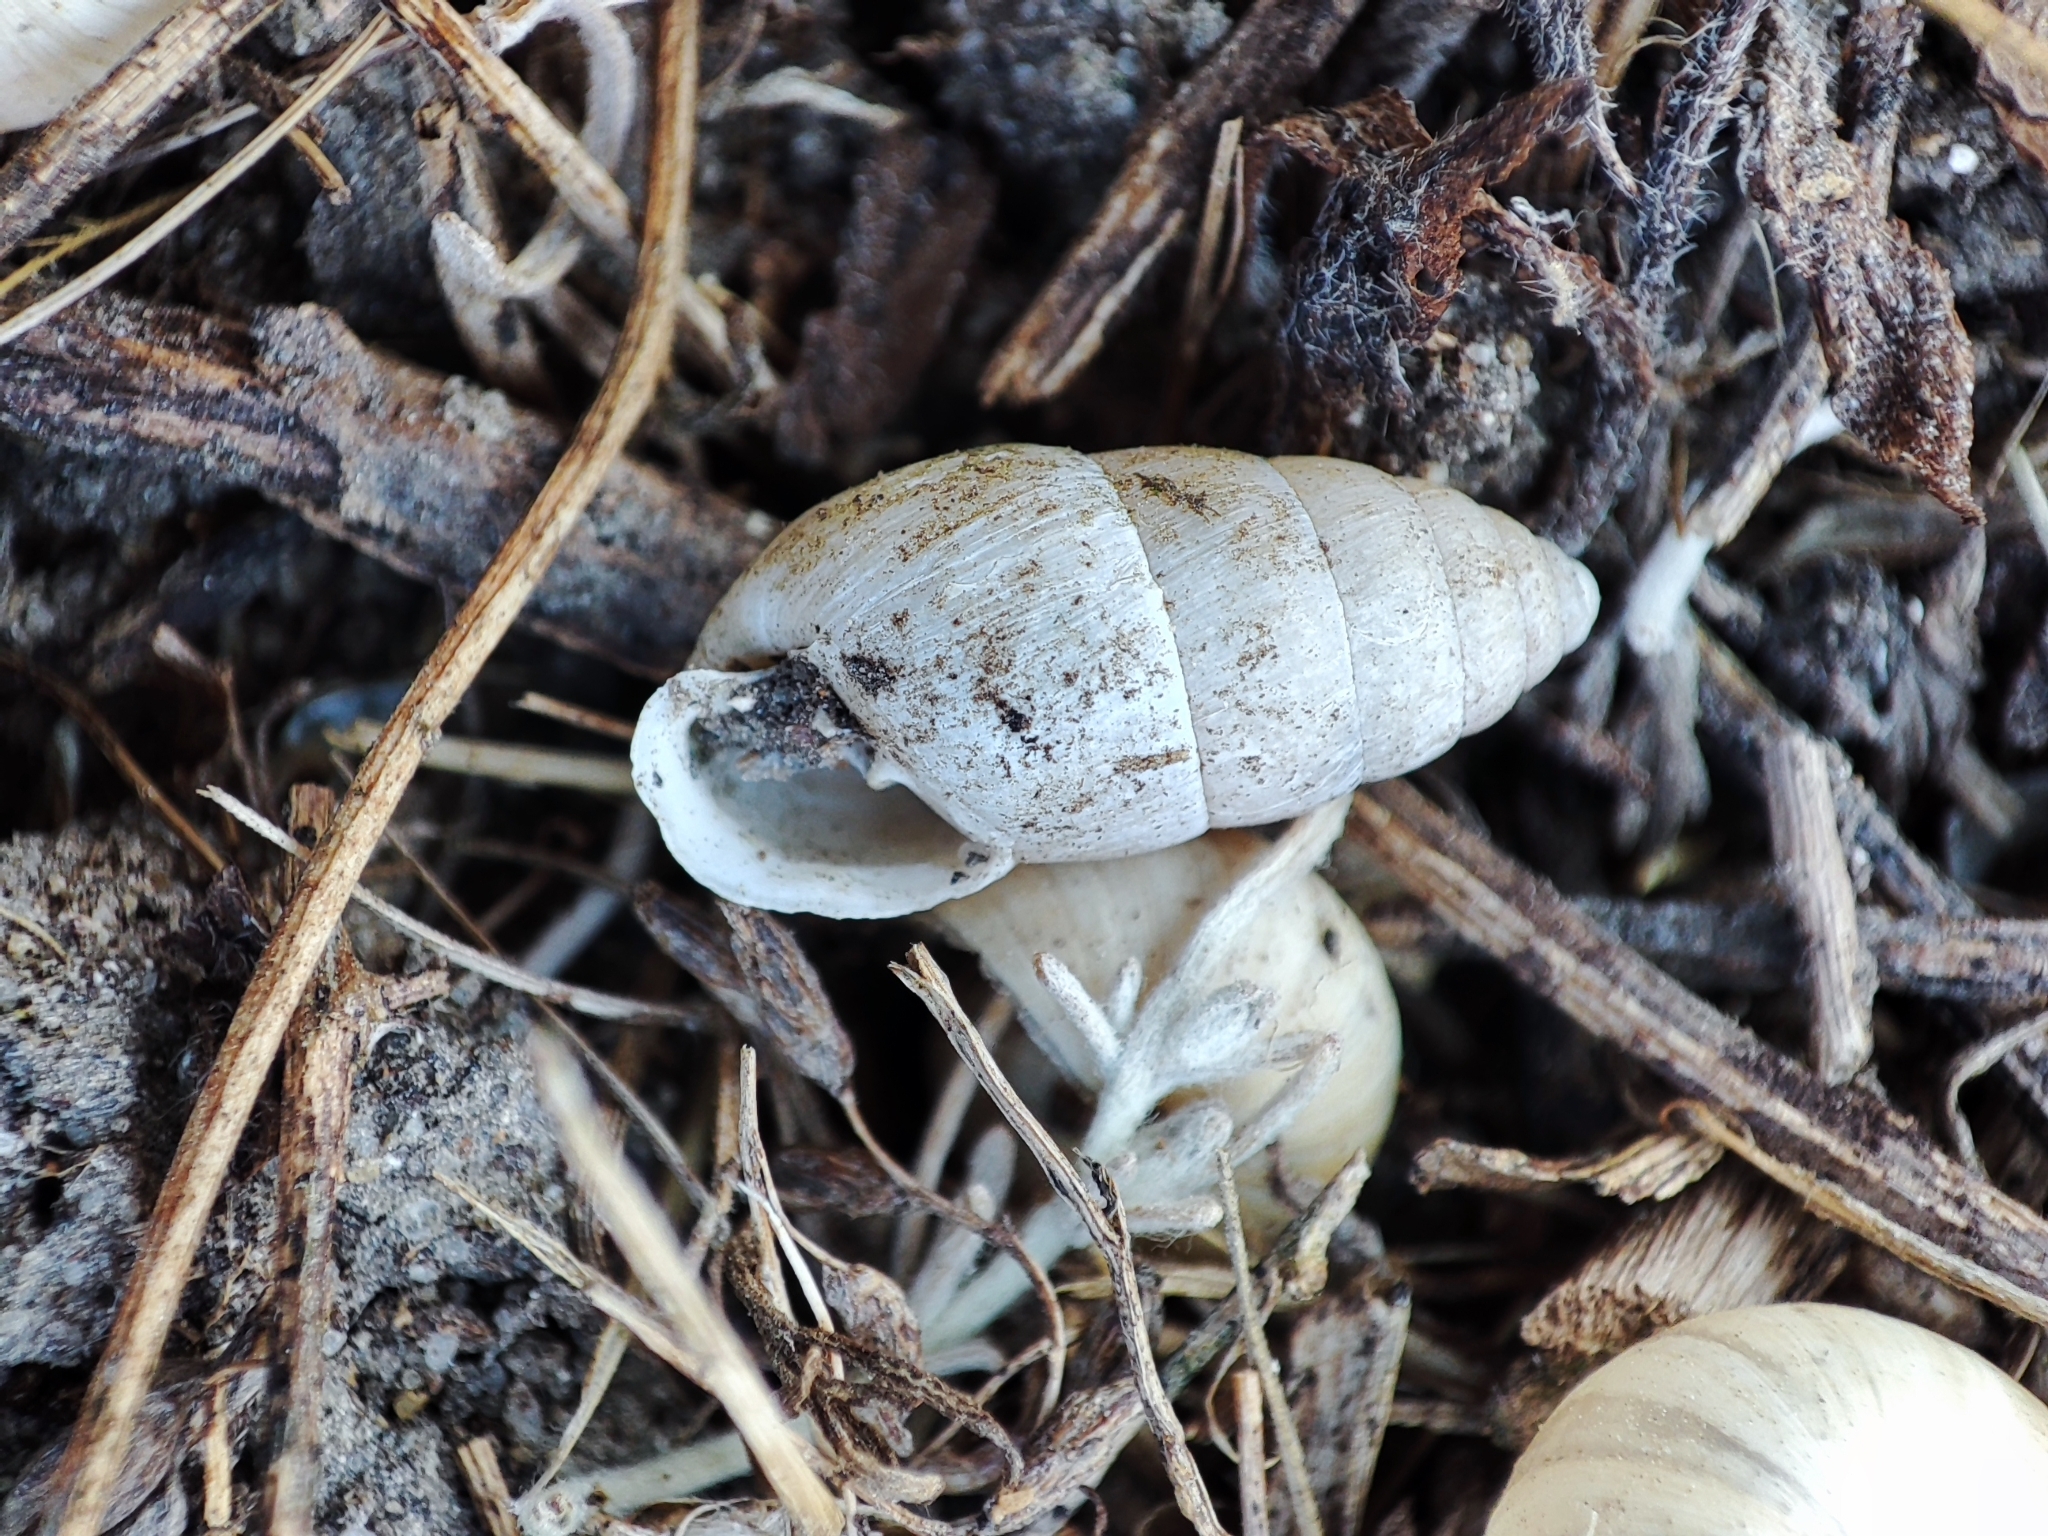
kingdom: Animalia
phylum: Mollusca
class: Gastropoda
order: Stylommatophora
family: Enidae
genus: Chondrula
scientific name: Chondrula tridens
